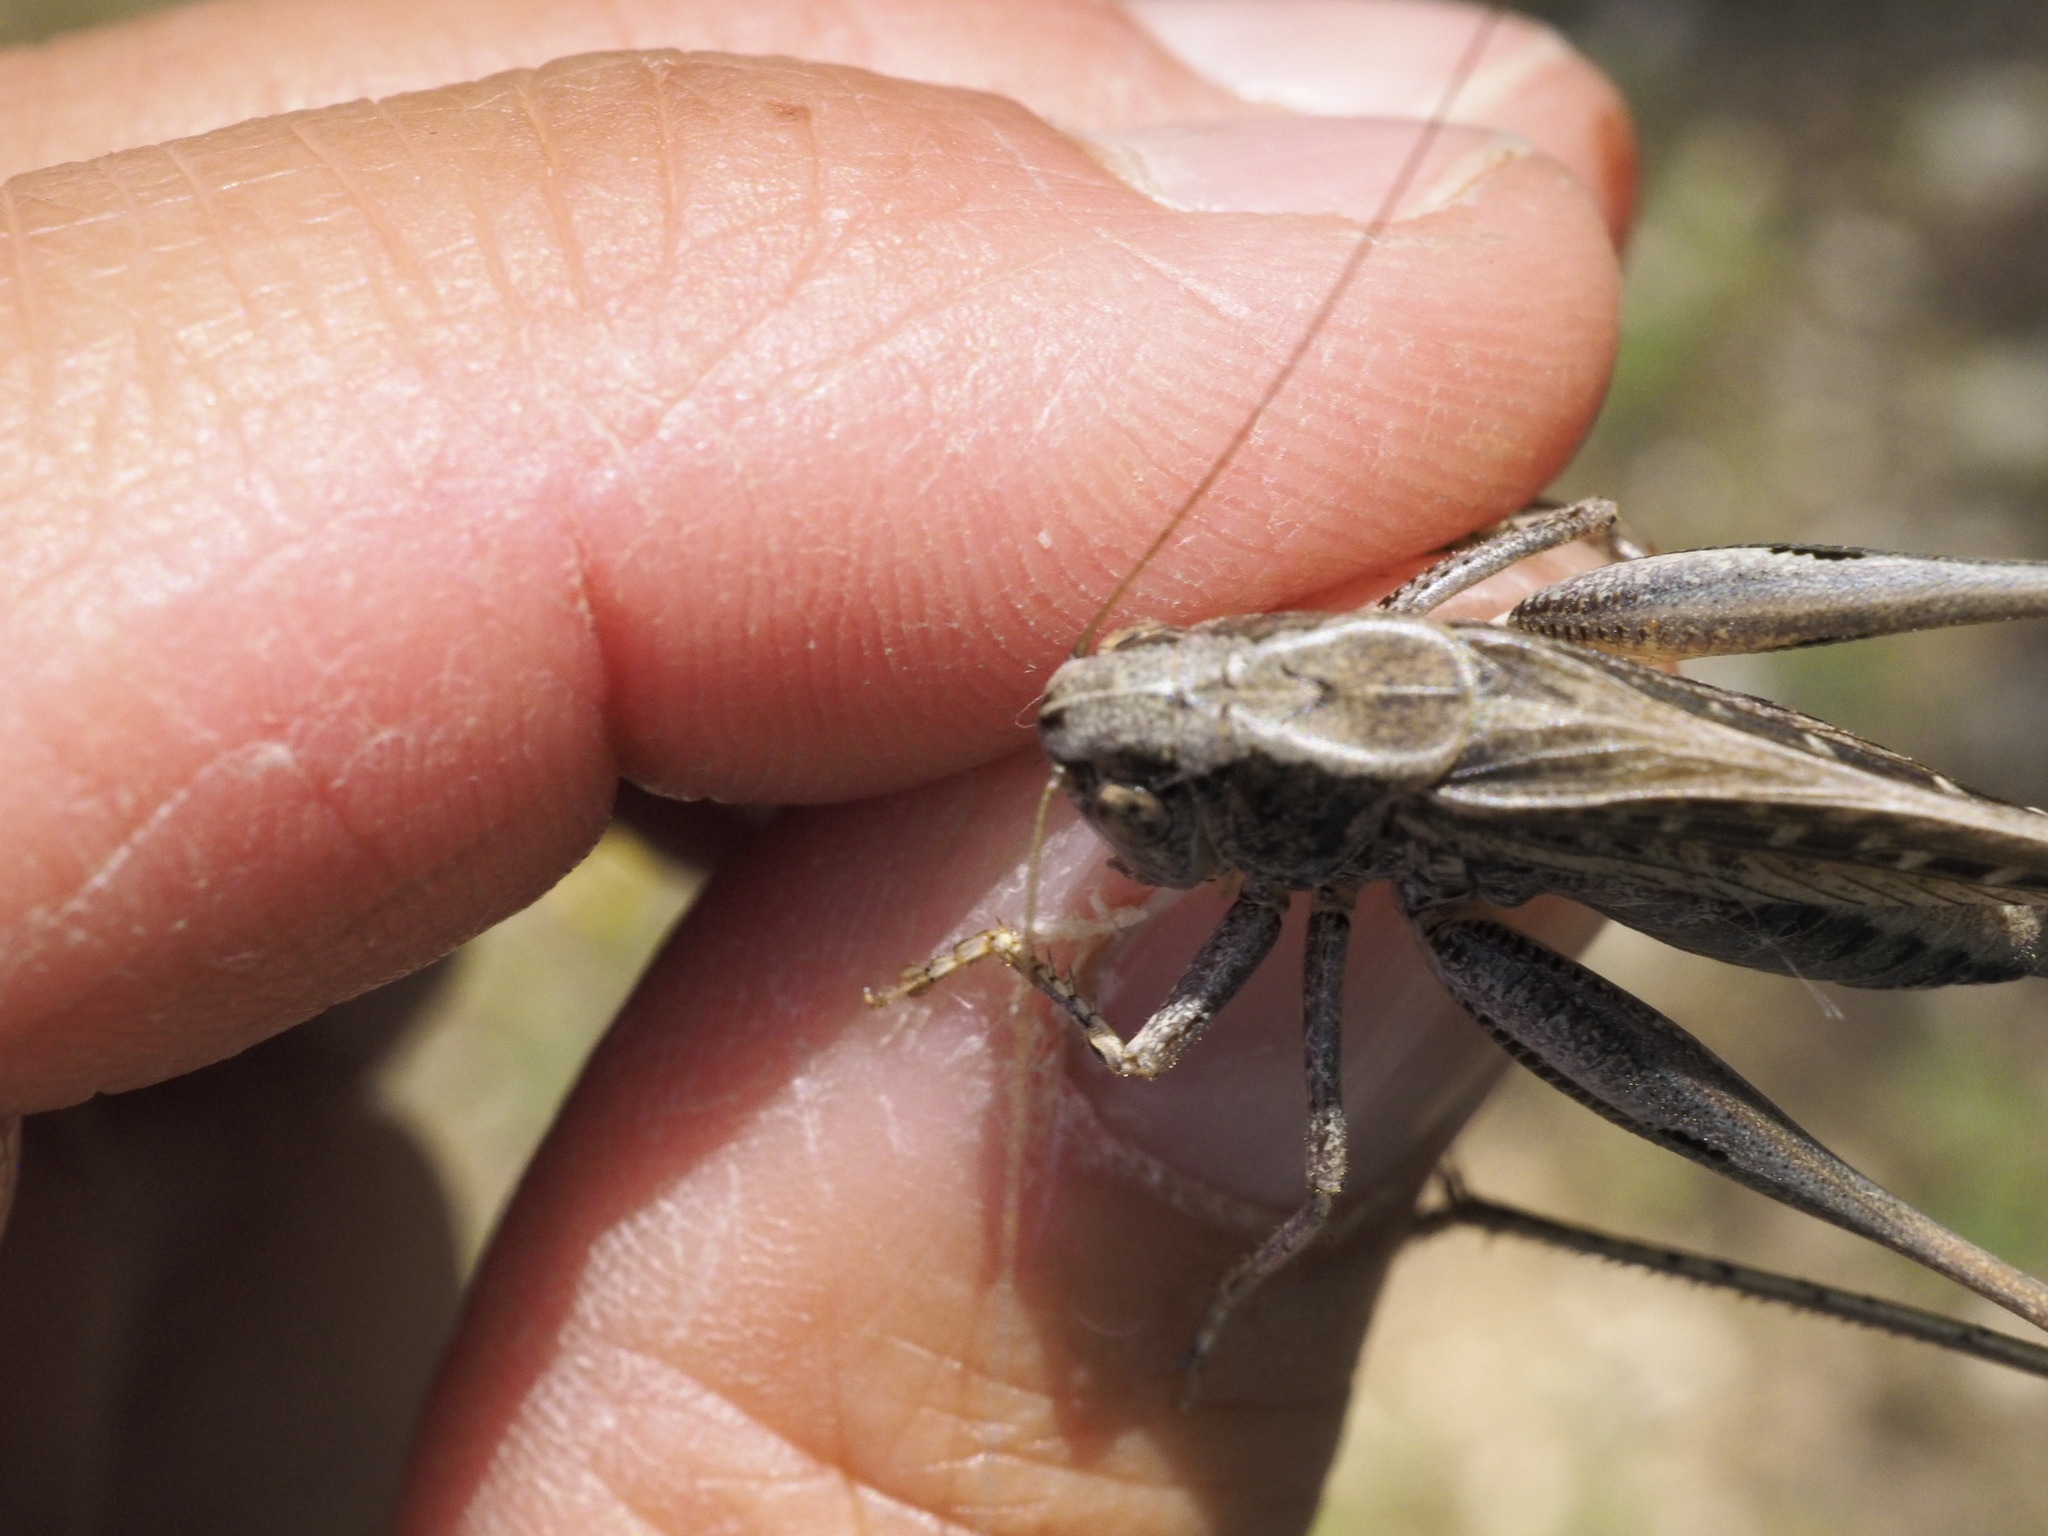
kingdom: Animalia
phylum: Arthropoda
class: Insecta
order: Orthoptera
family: Tettigoniidae
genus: Platycleis
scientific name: Platycleis albopunctata
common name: Grey bush-cricket
